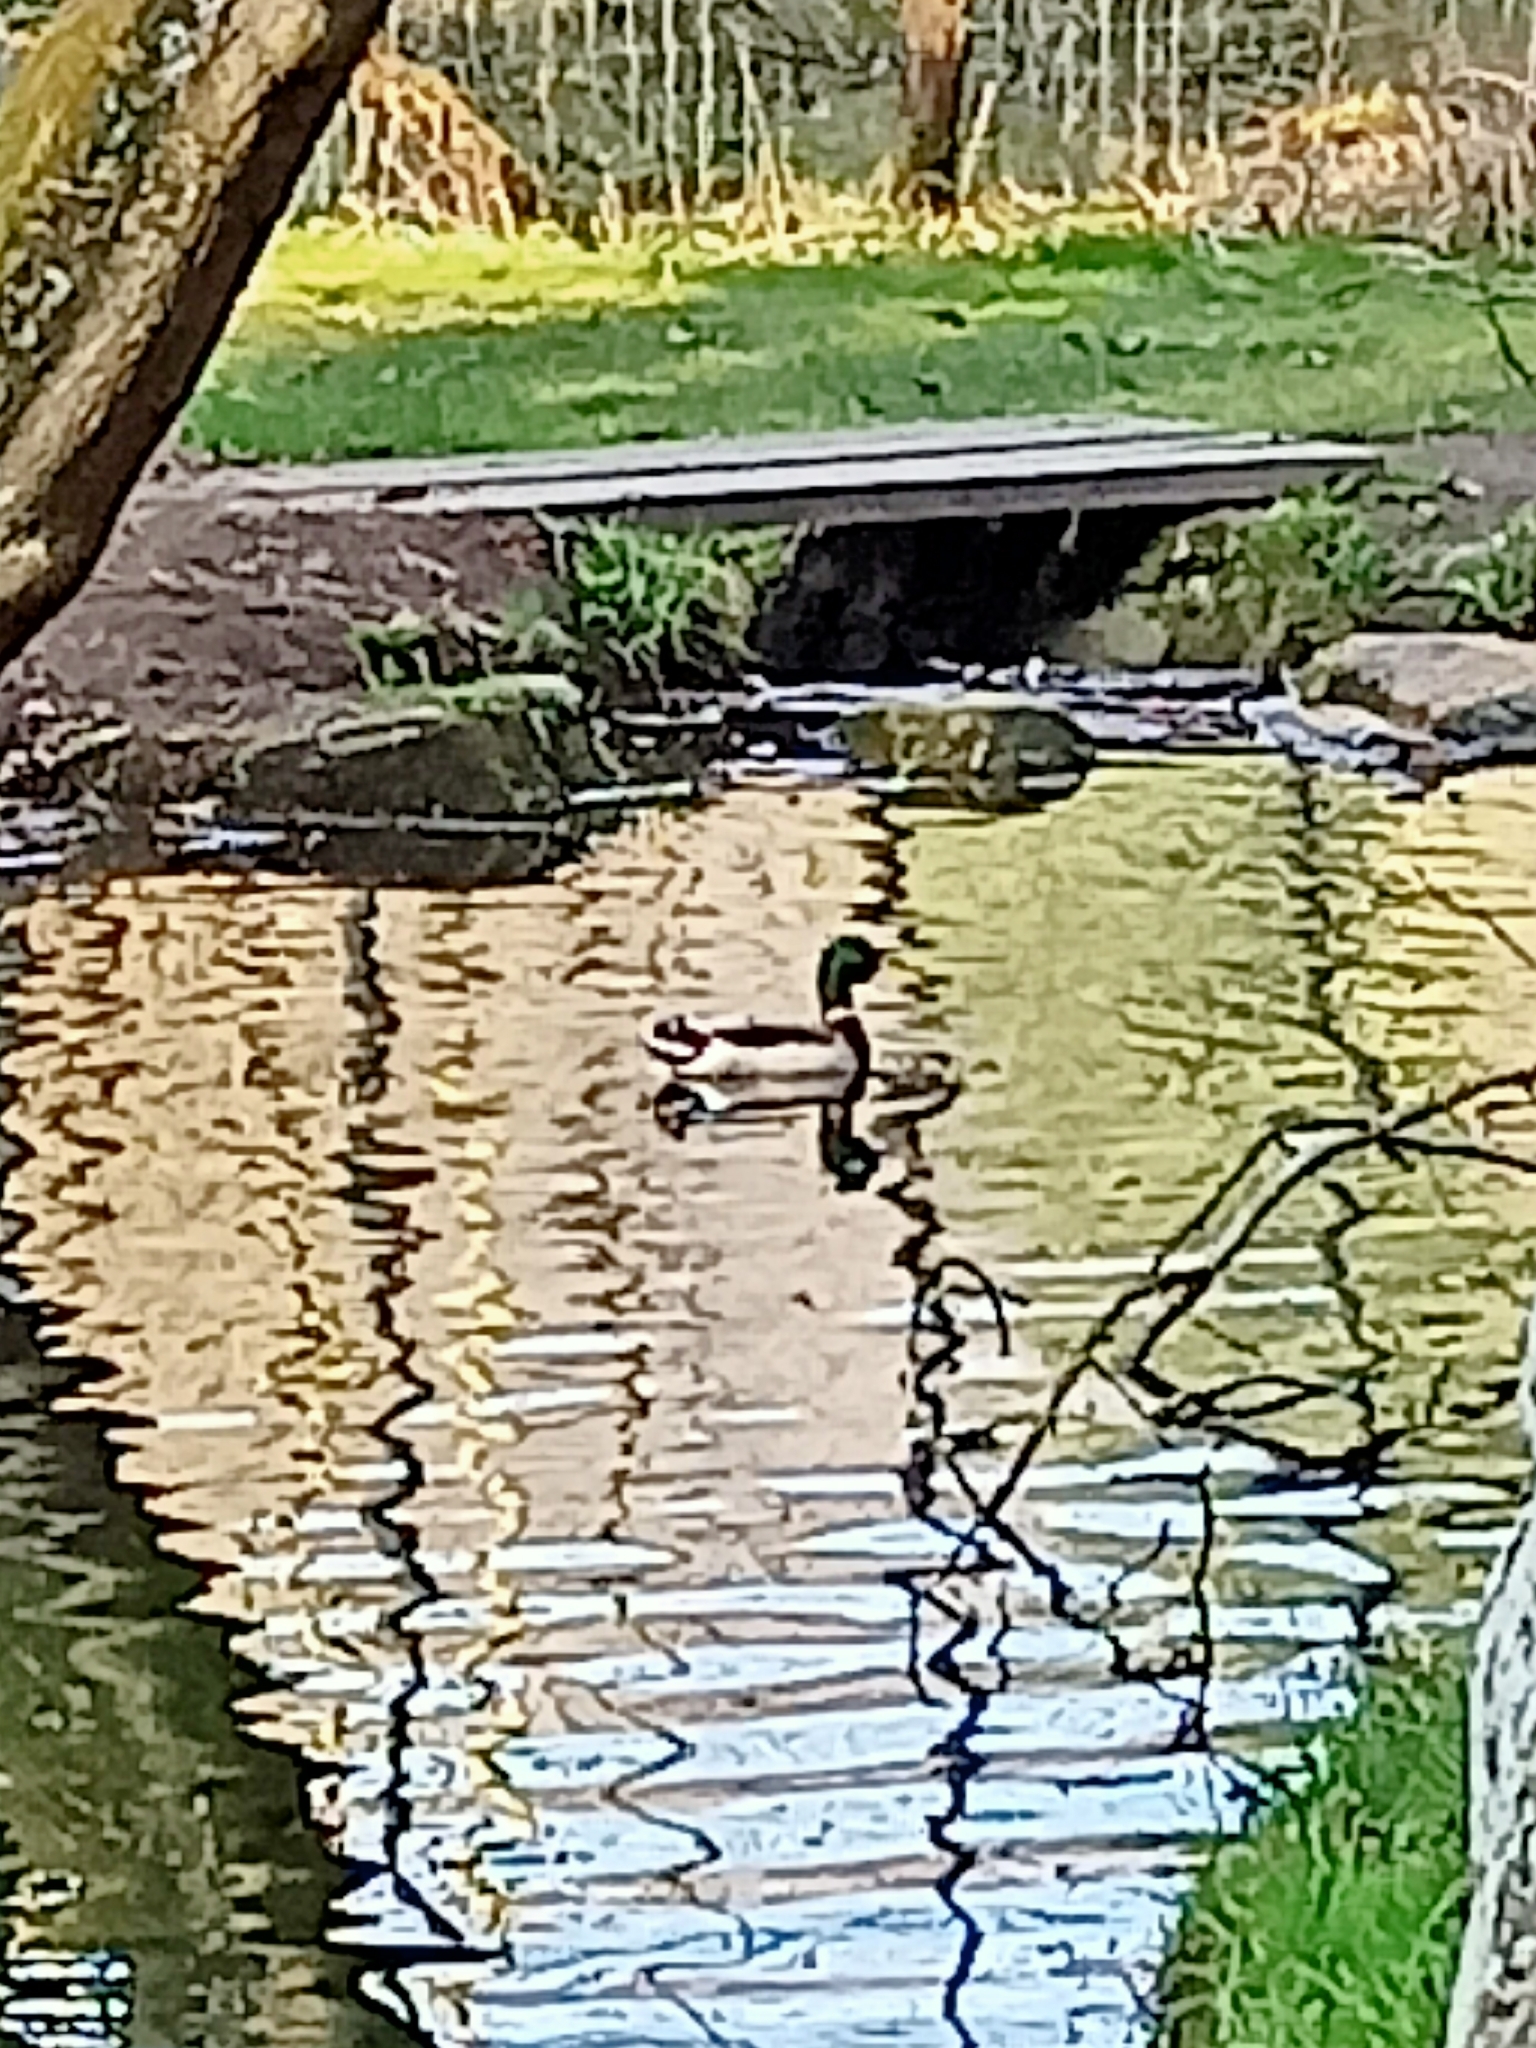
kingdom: Animalia
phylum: Chordata
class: Aves
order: Anseriformes
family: Anatidae
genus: Anas
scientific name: Anas platyrhynchos
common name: Mallard
